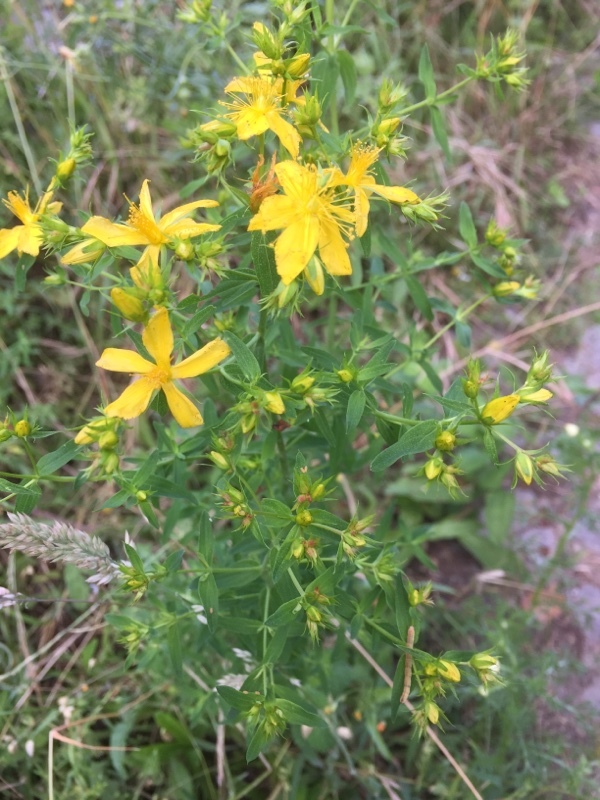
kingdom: Plantae
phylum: Tracheophyta
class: Magnoliopsida
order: Malpighiales
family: Hypericaceae
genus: Hypericum
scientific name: Hypericum perforatum
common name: Common st. johnswort
